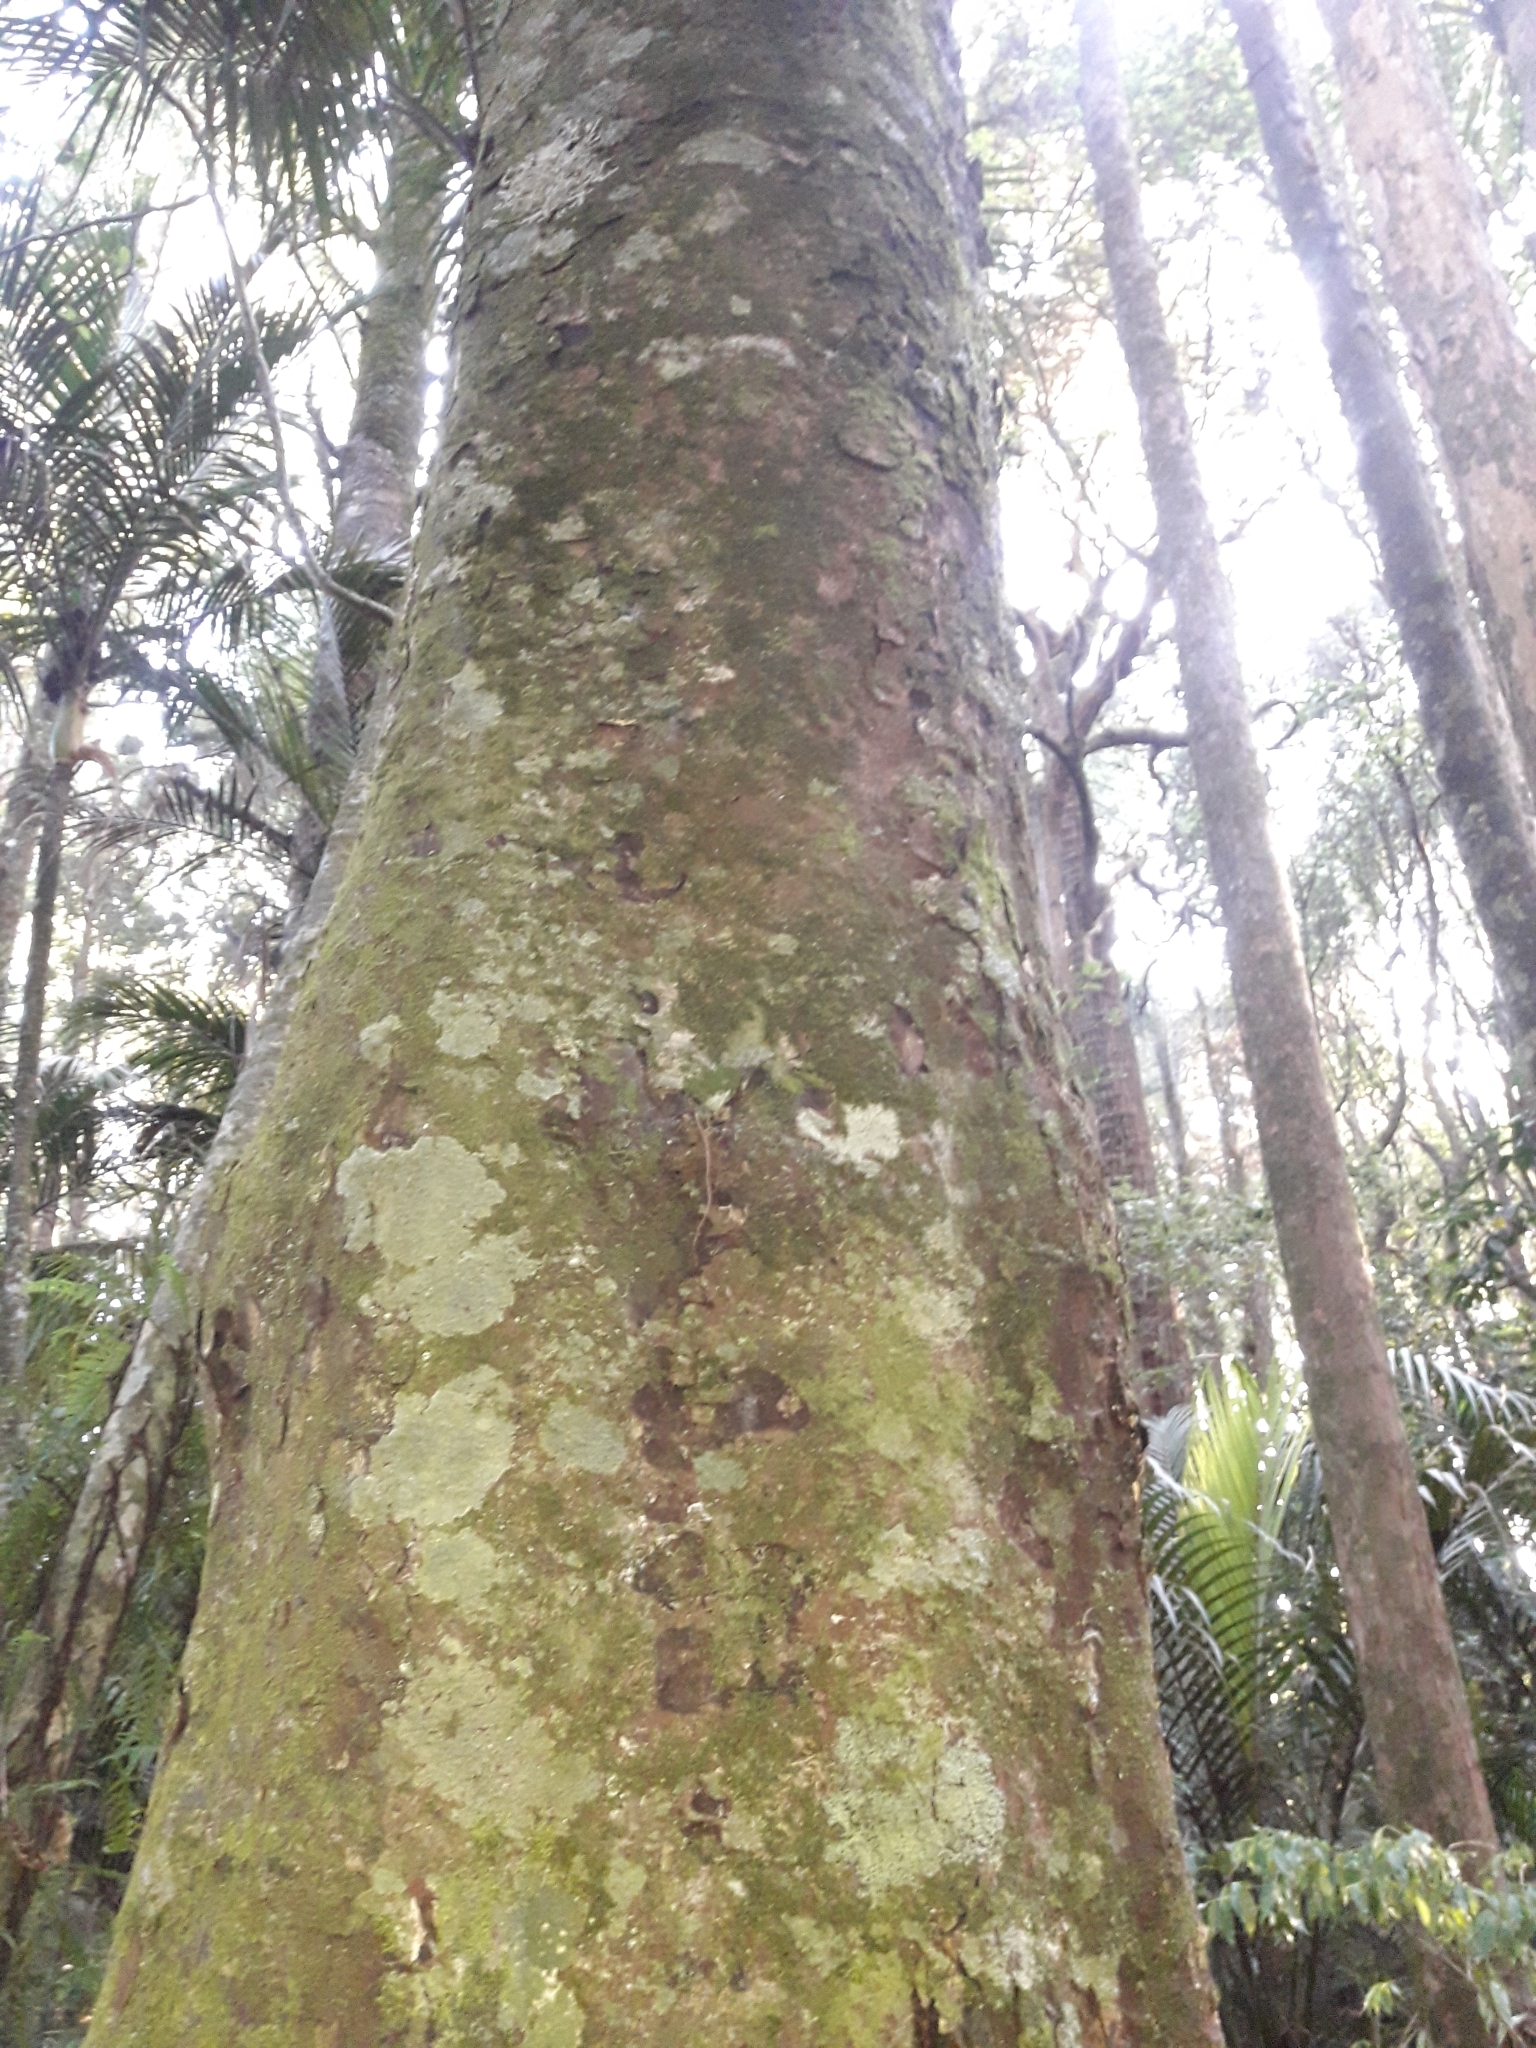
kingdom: Plantae
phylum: Tracheophyta
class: Pinopsida
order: Pinales
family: Podocarpaceae
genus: Dacrycarpus
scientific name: Dacrycarpus dacrydioides
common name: White pine
